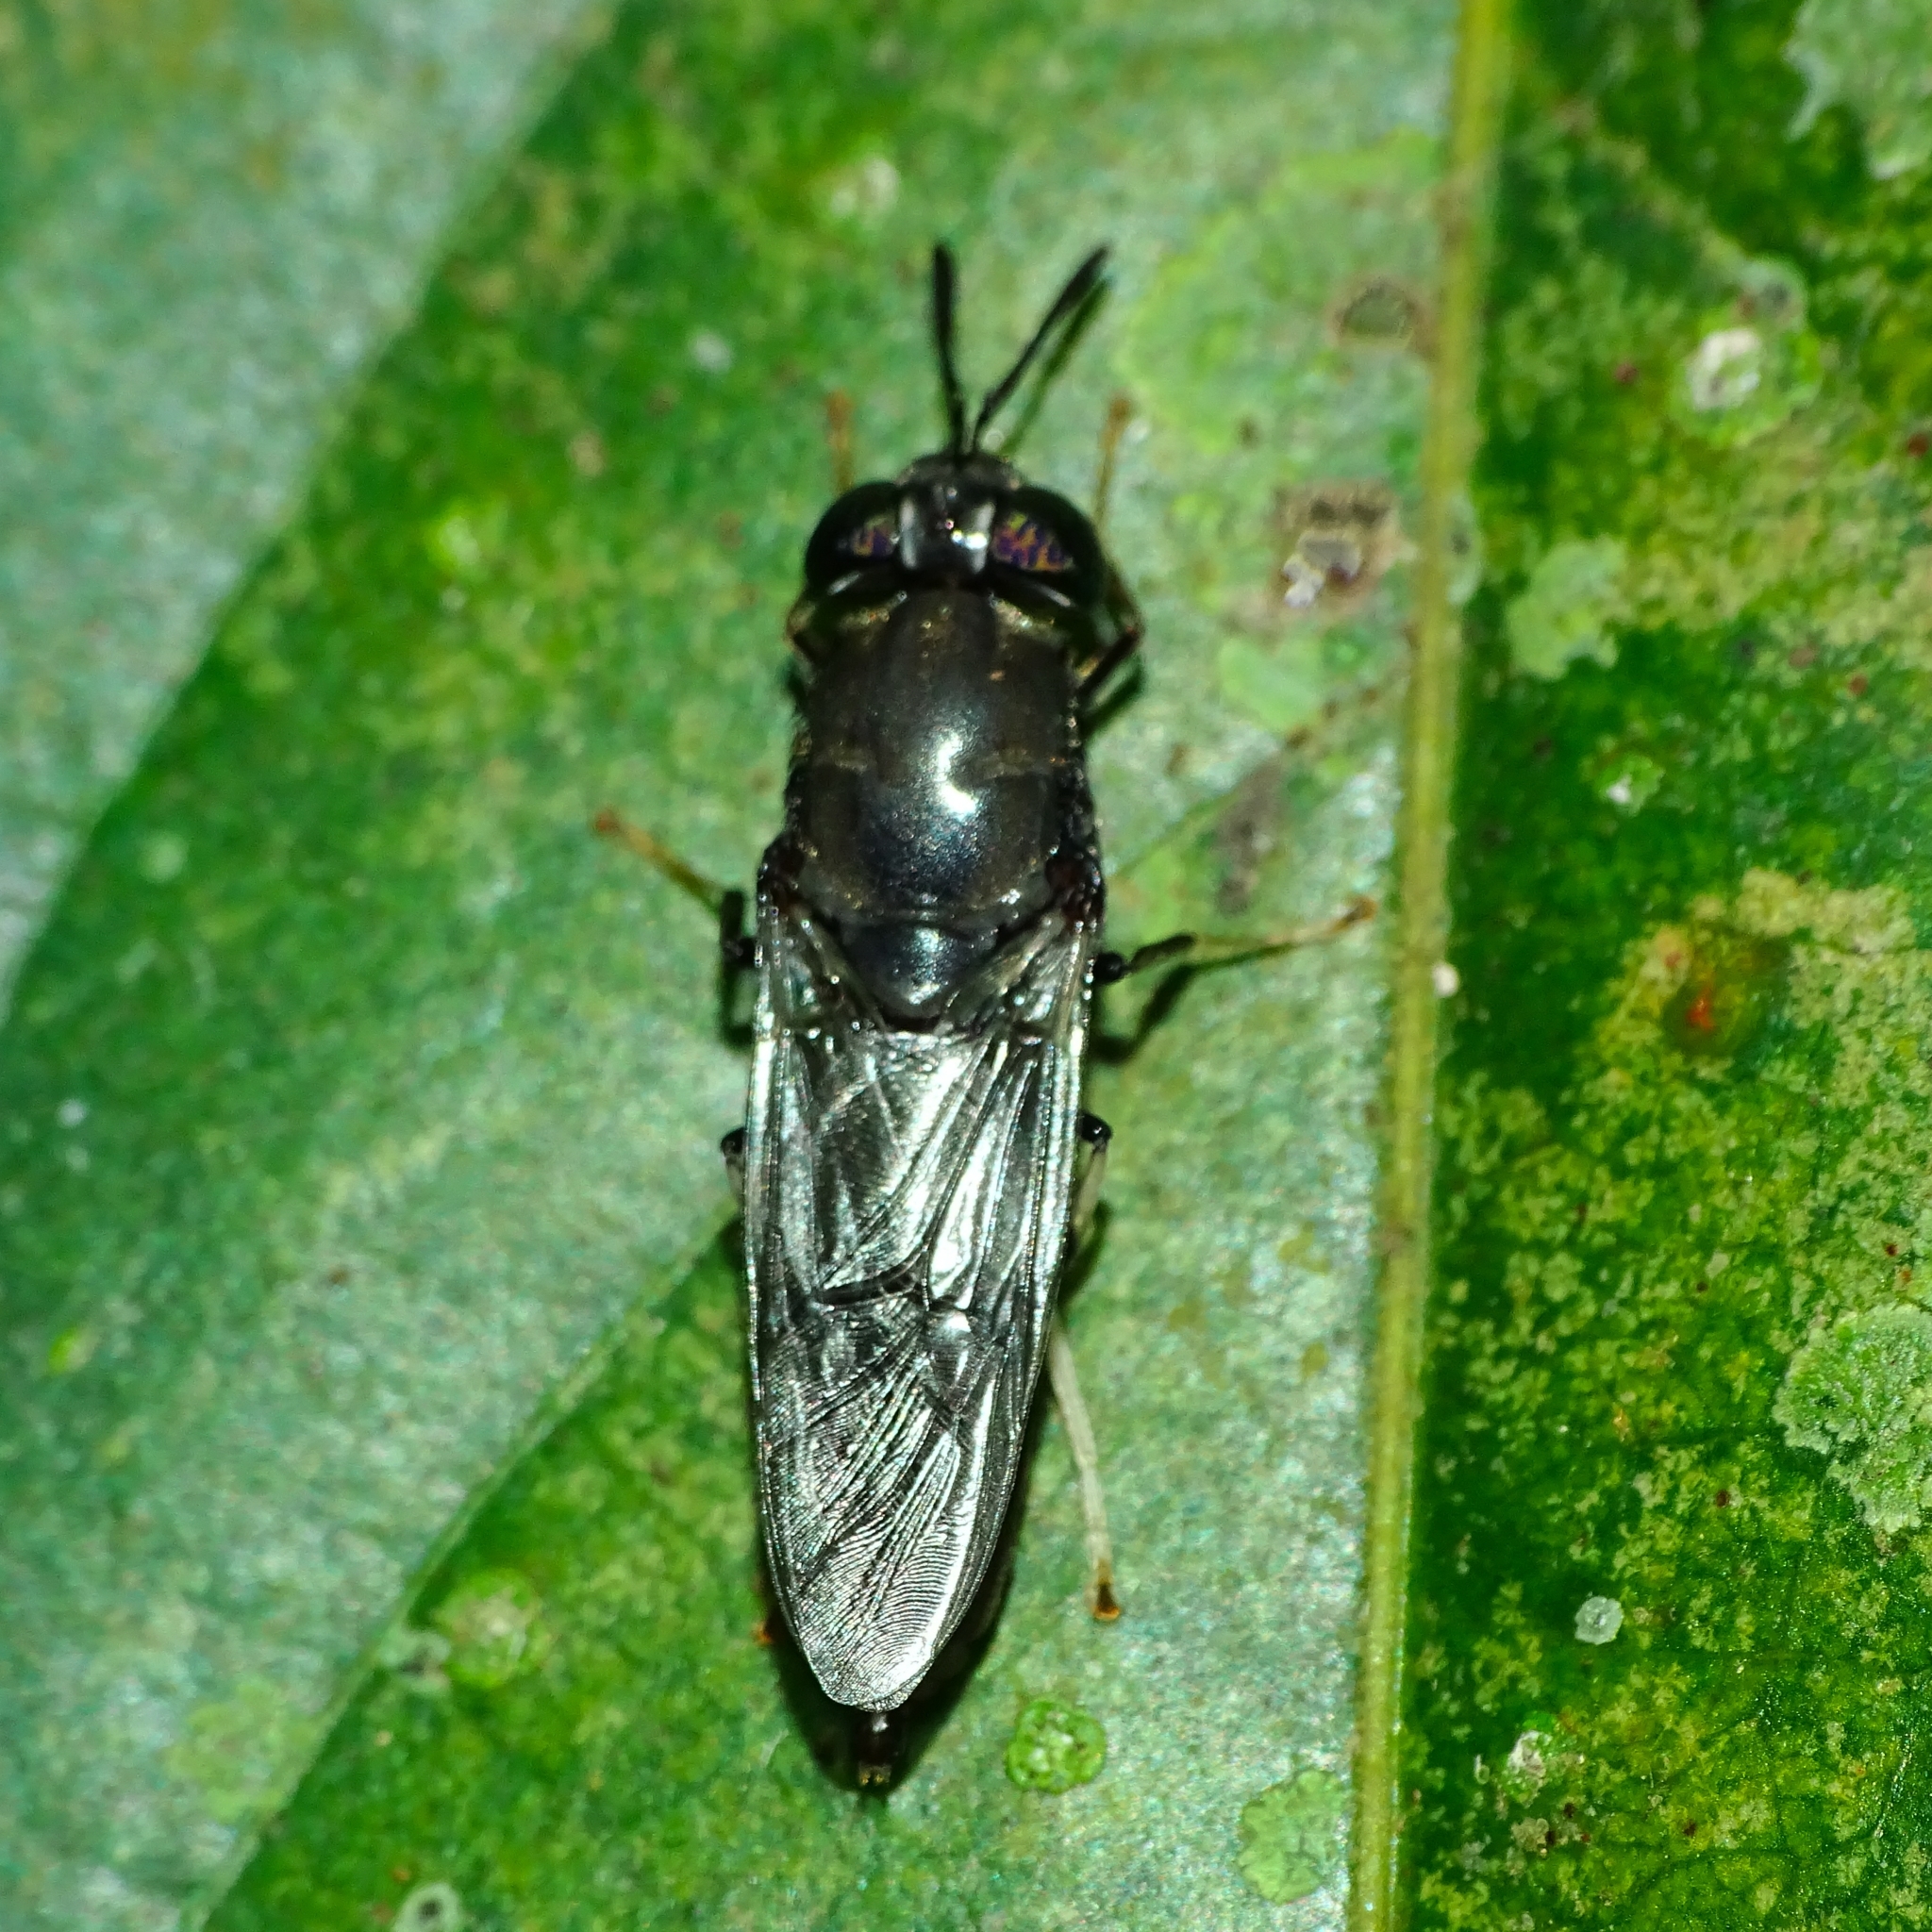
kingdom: Animalia
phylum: Arthropoda
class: Insecta
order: Diptera
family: Stratiomyidae
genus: Hermetia
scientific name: Hermetia illucens
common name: Black soldier fly
